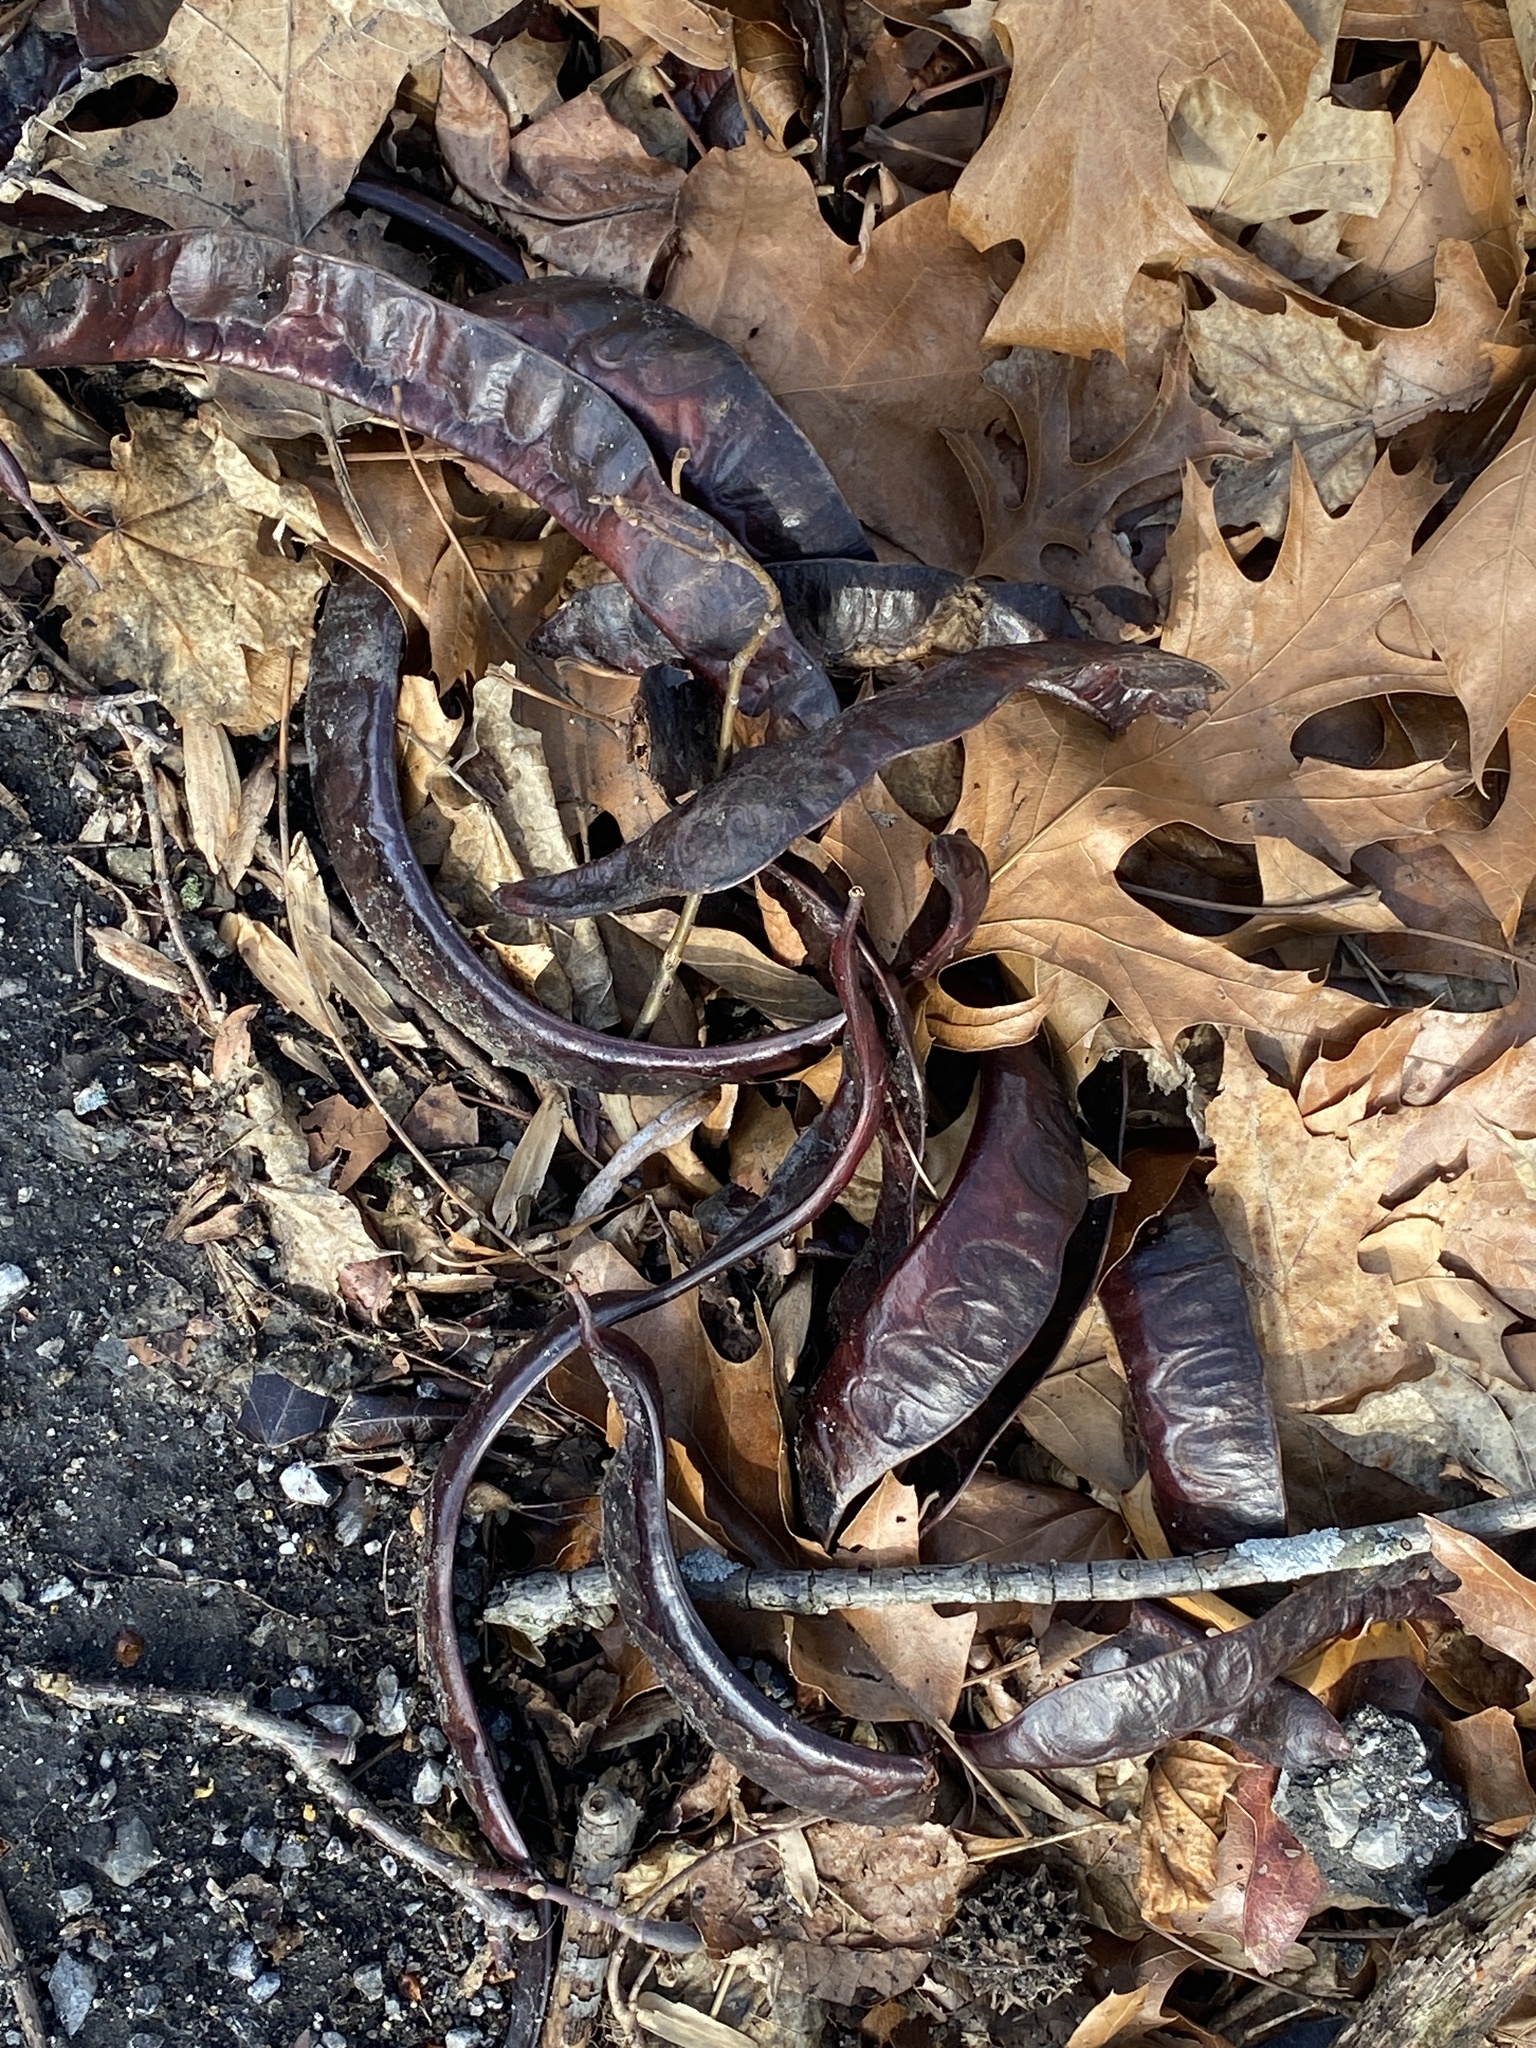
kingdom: Plantae
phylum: Tracheophyta
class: Magnoliopsida
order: Fabales
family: Fabaceae
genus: Gleditsia
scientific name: Gleditsia triacanthos
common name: Common honeylocust
